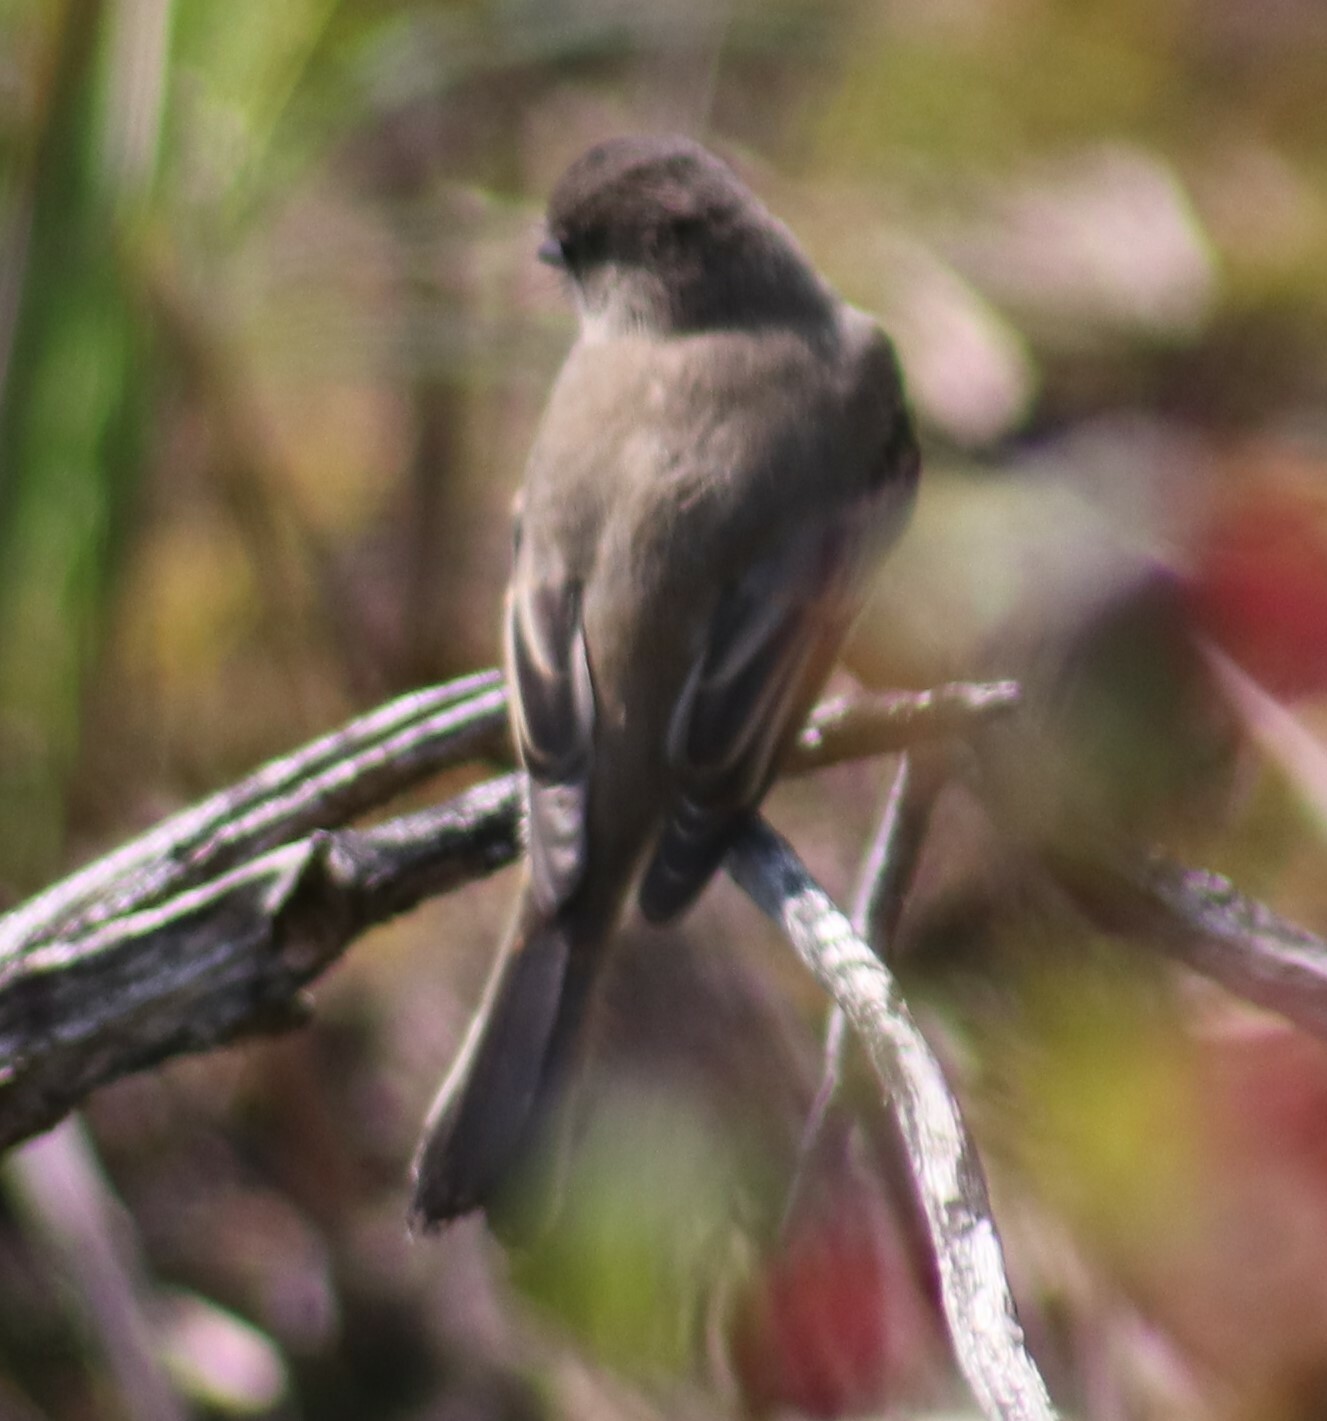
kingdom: Animalia
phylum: Chordata
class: Aves
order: Passeriformes
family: Tyrannidae
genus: Sayornis
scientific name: Sayornis phoebe
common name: Eastern phoebe
